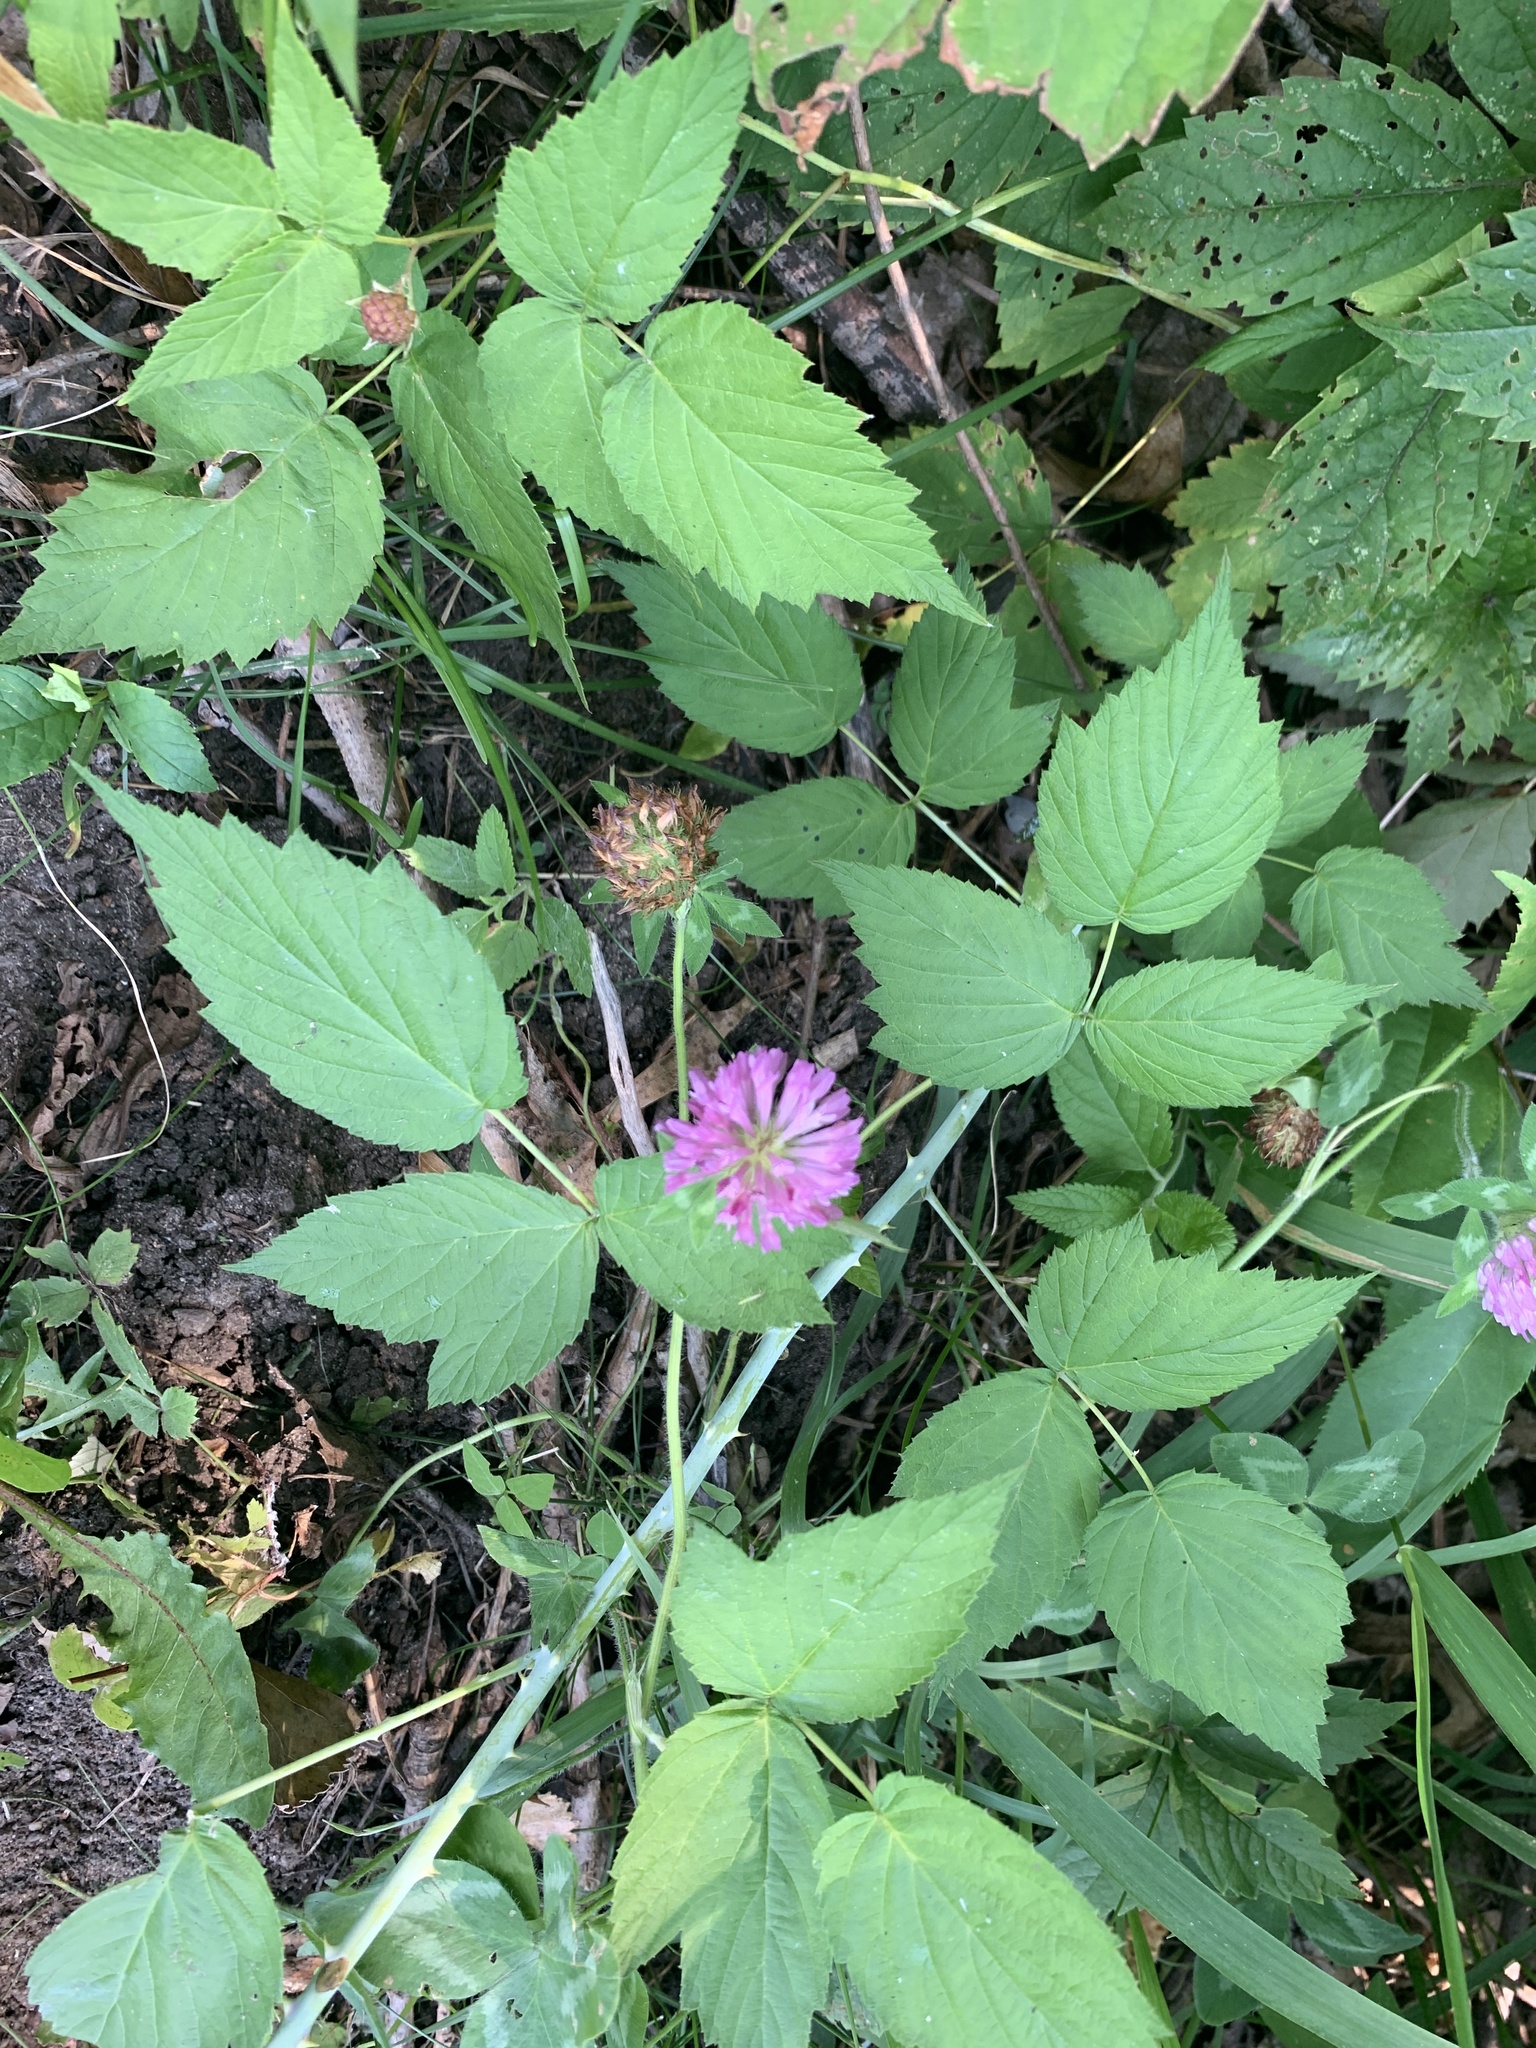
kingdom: Plantae
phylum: Tracheophyta
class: Magnoliopsida
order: Fabales
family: Fabaceae
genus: Trifolium
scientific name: Trifolium pratense
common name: Red clover
